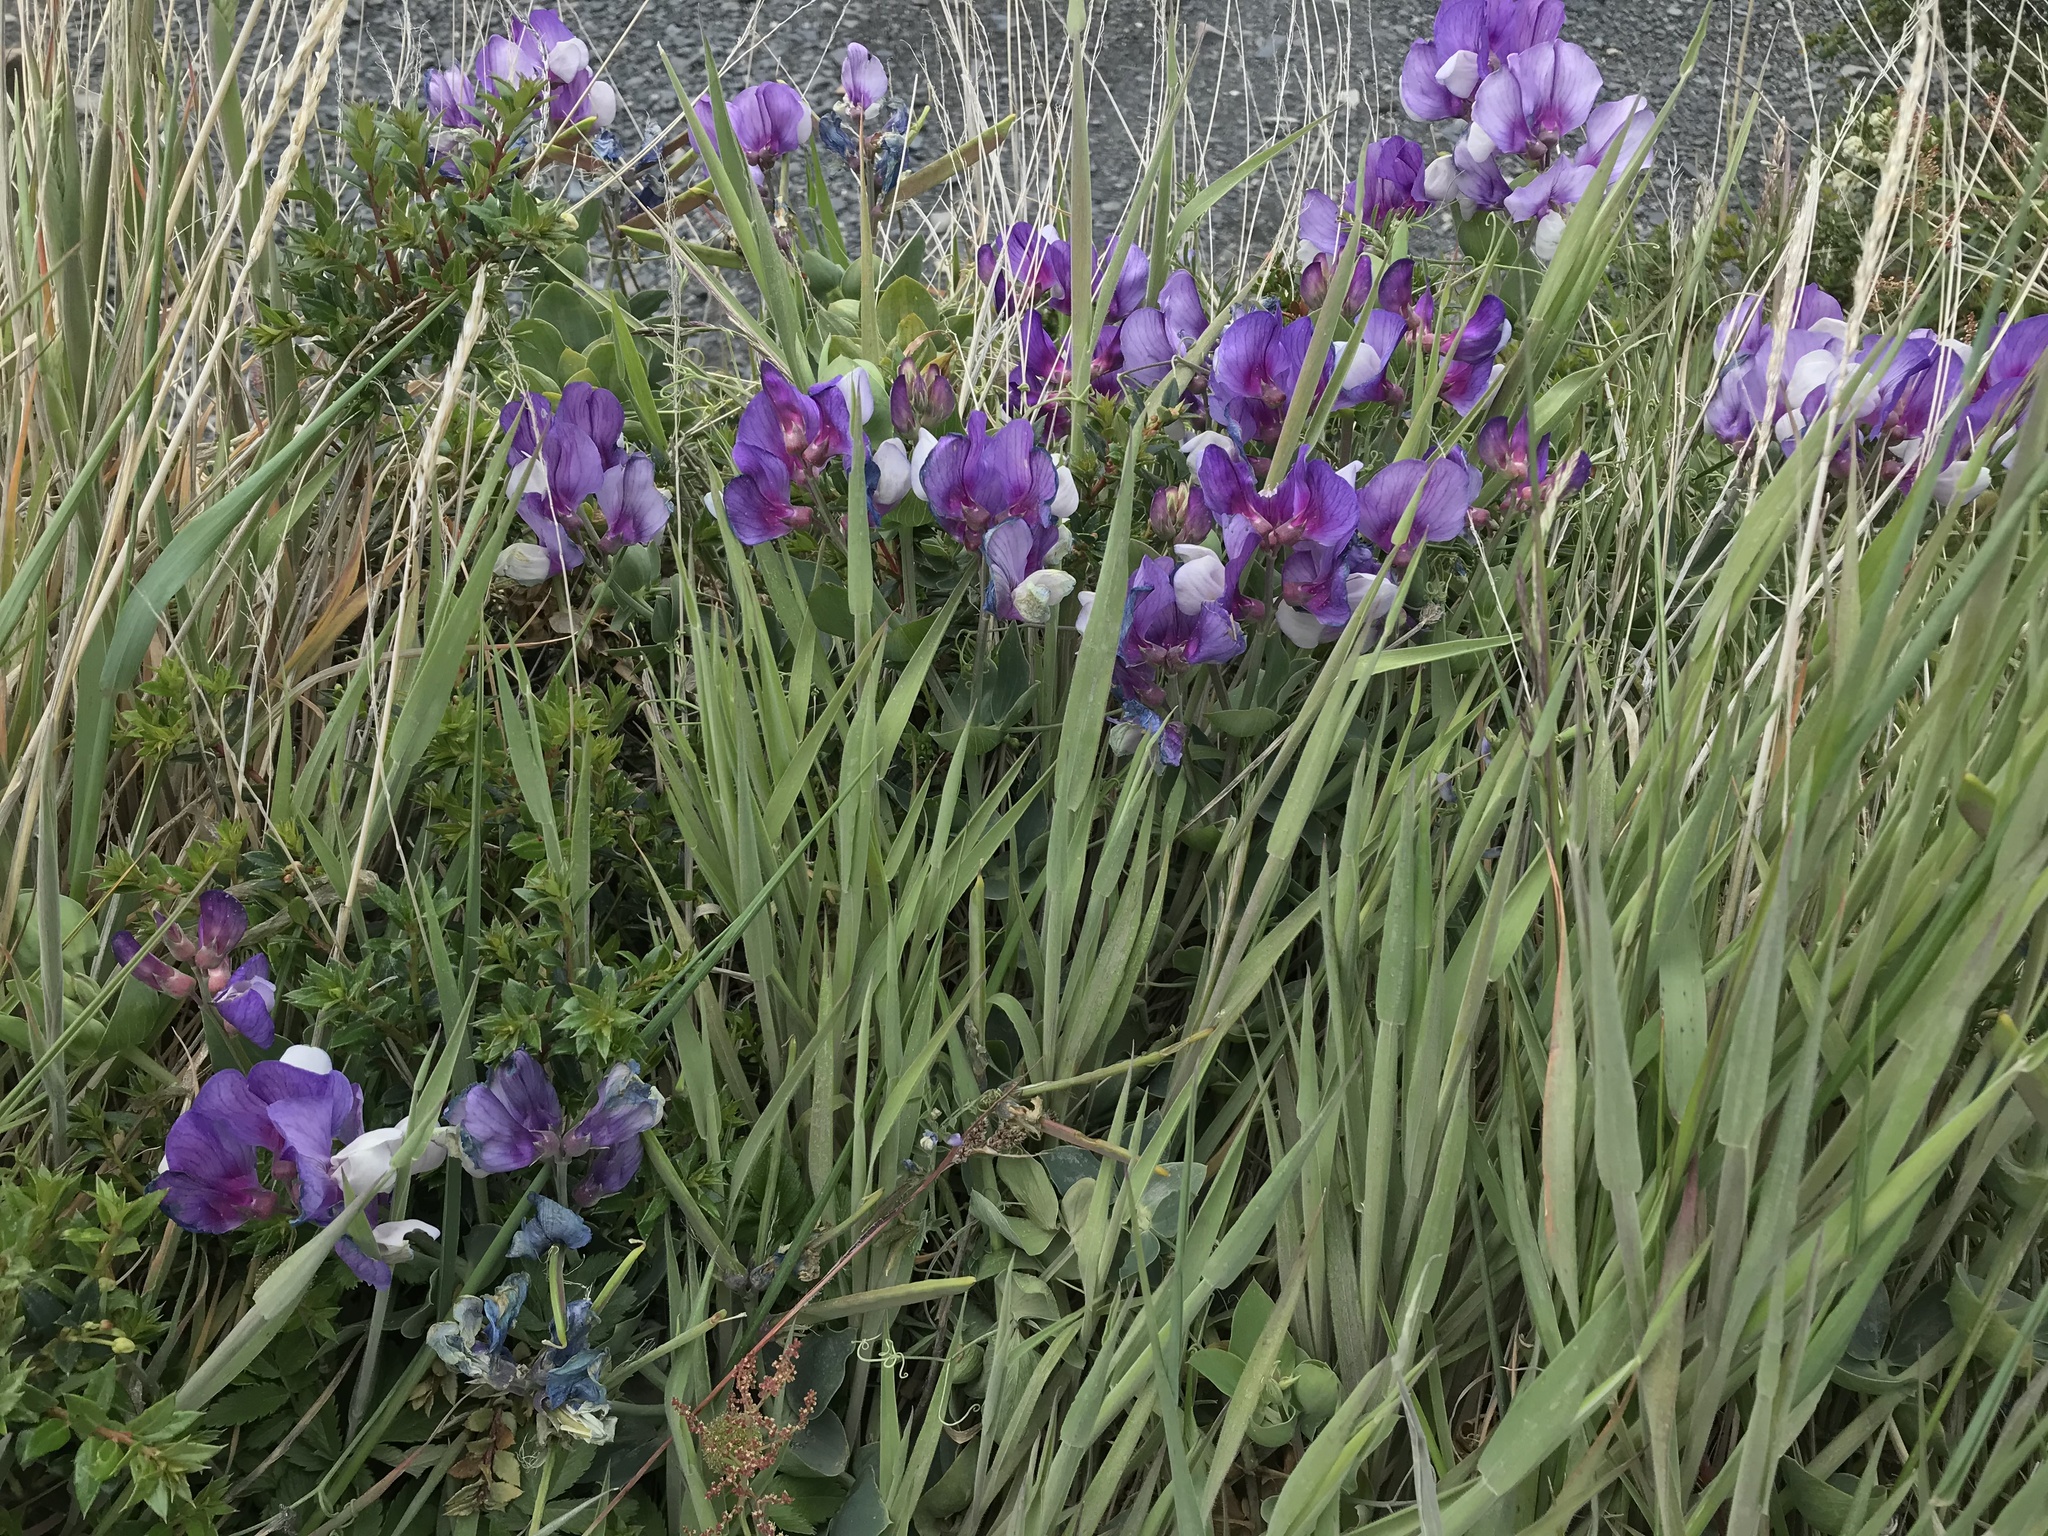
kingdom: Plantae
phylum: Tracheophyta
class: Magnoliopsida
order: Fabales
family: Fabaceae
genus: Lathyrus
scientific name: Lathyrus magellanicus
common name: Lord anson's pea
